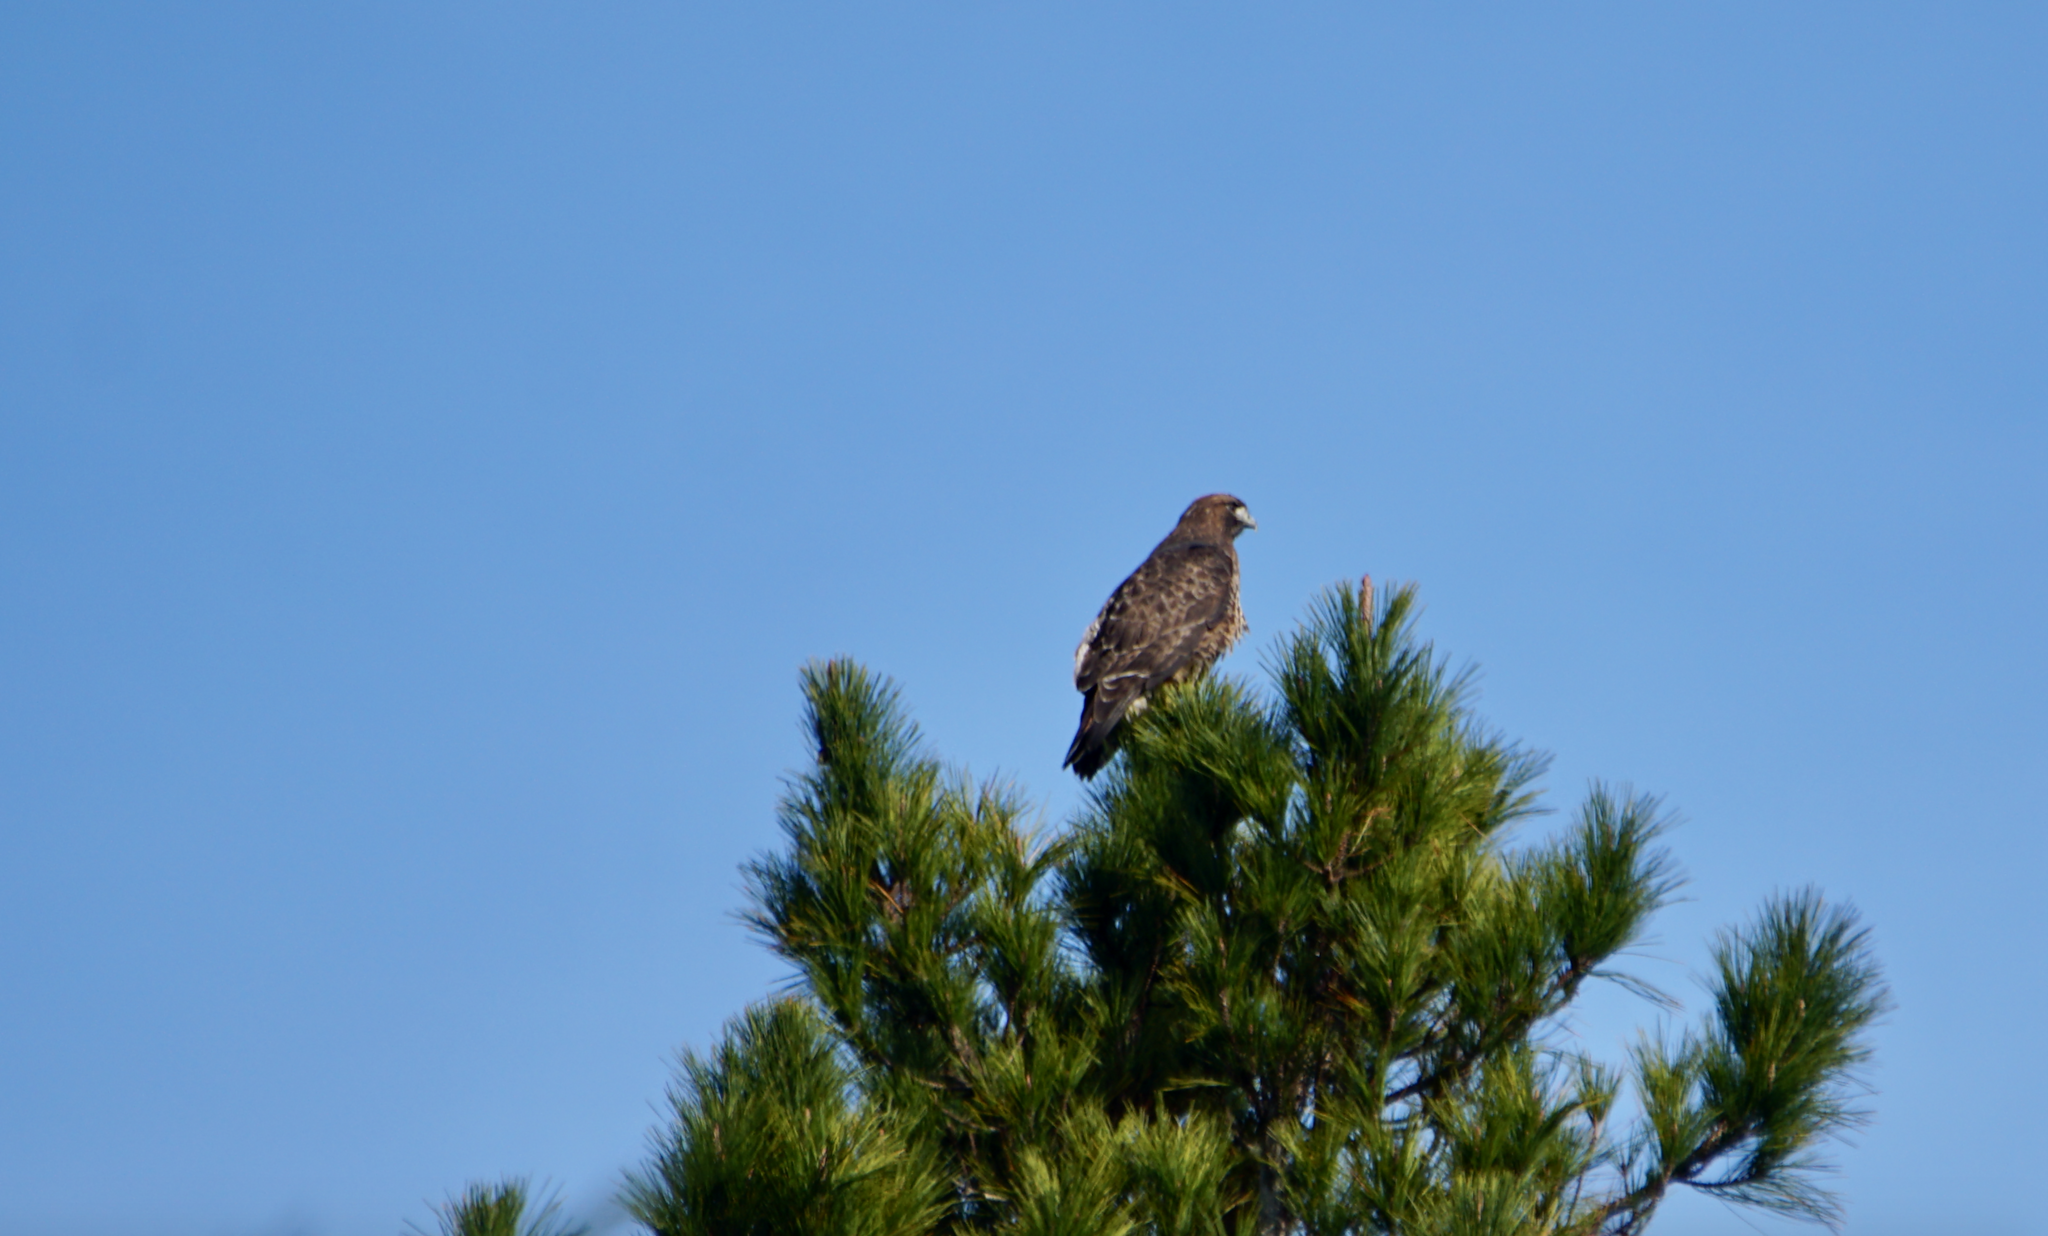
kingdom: Animalia
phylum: Chordata
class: Aves
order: Accipitriformes
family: Accipitridae
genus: Buteo
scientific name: Buteo jamaicensis
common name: Red-tailed hawk
